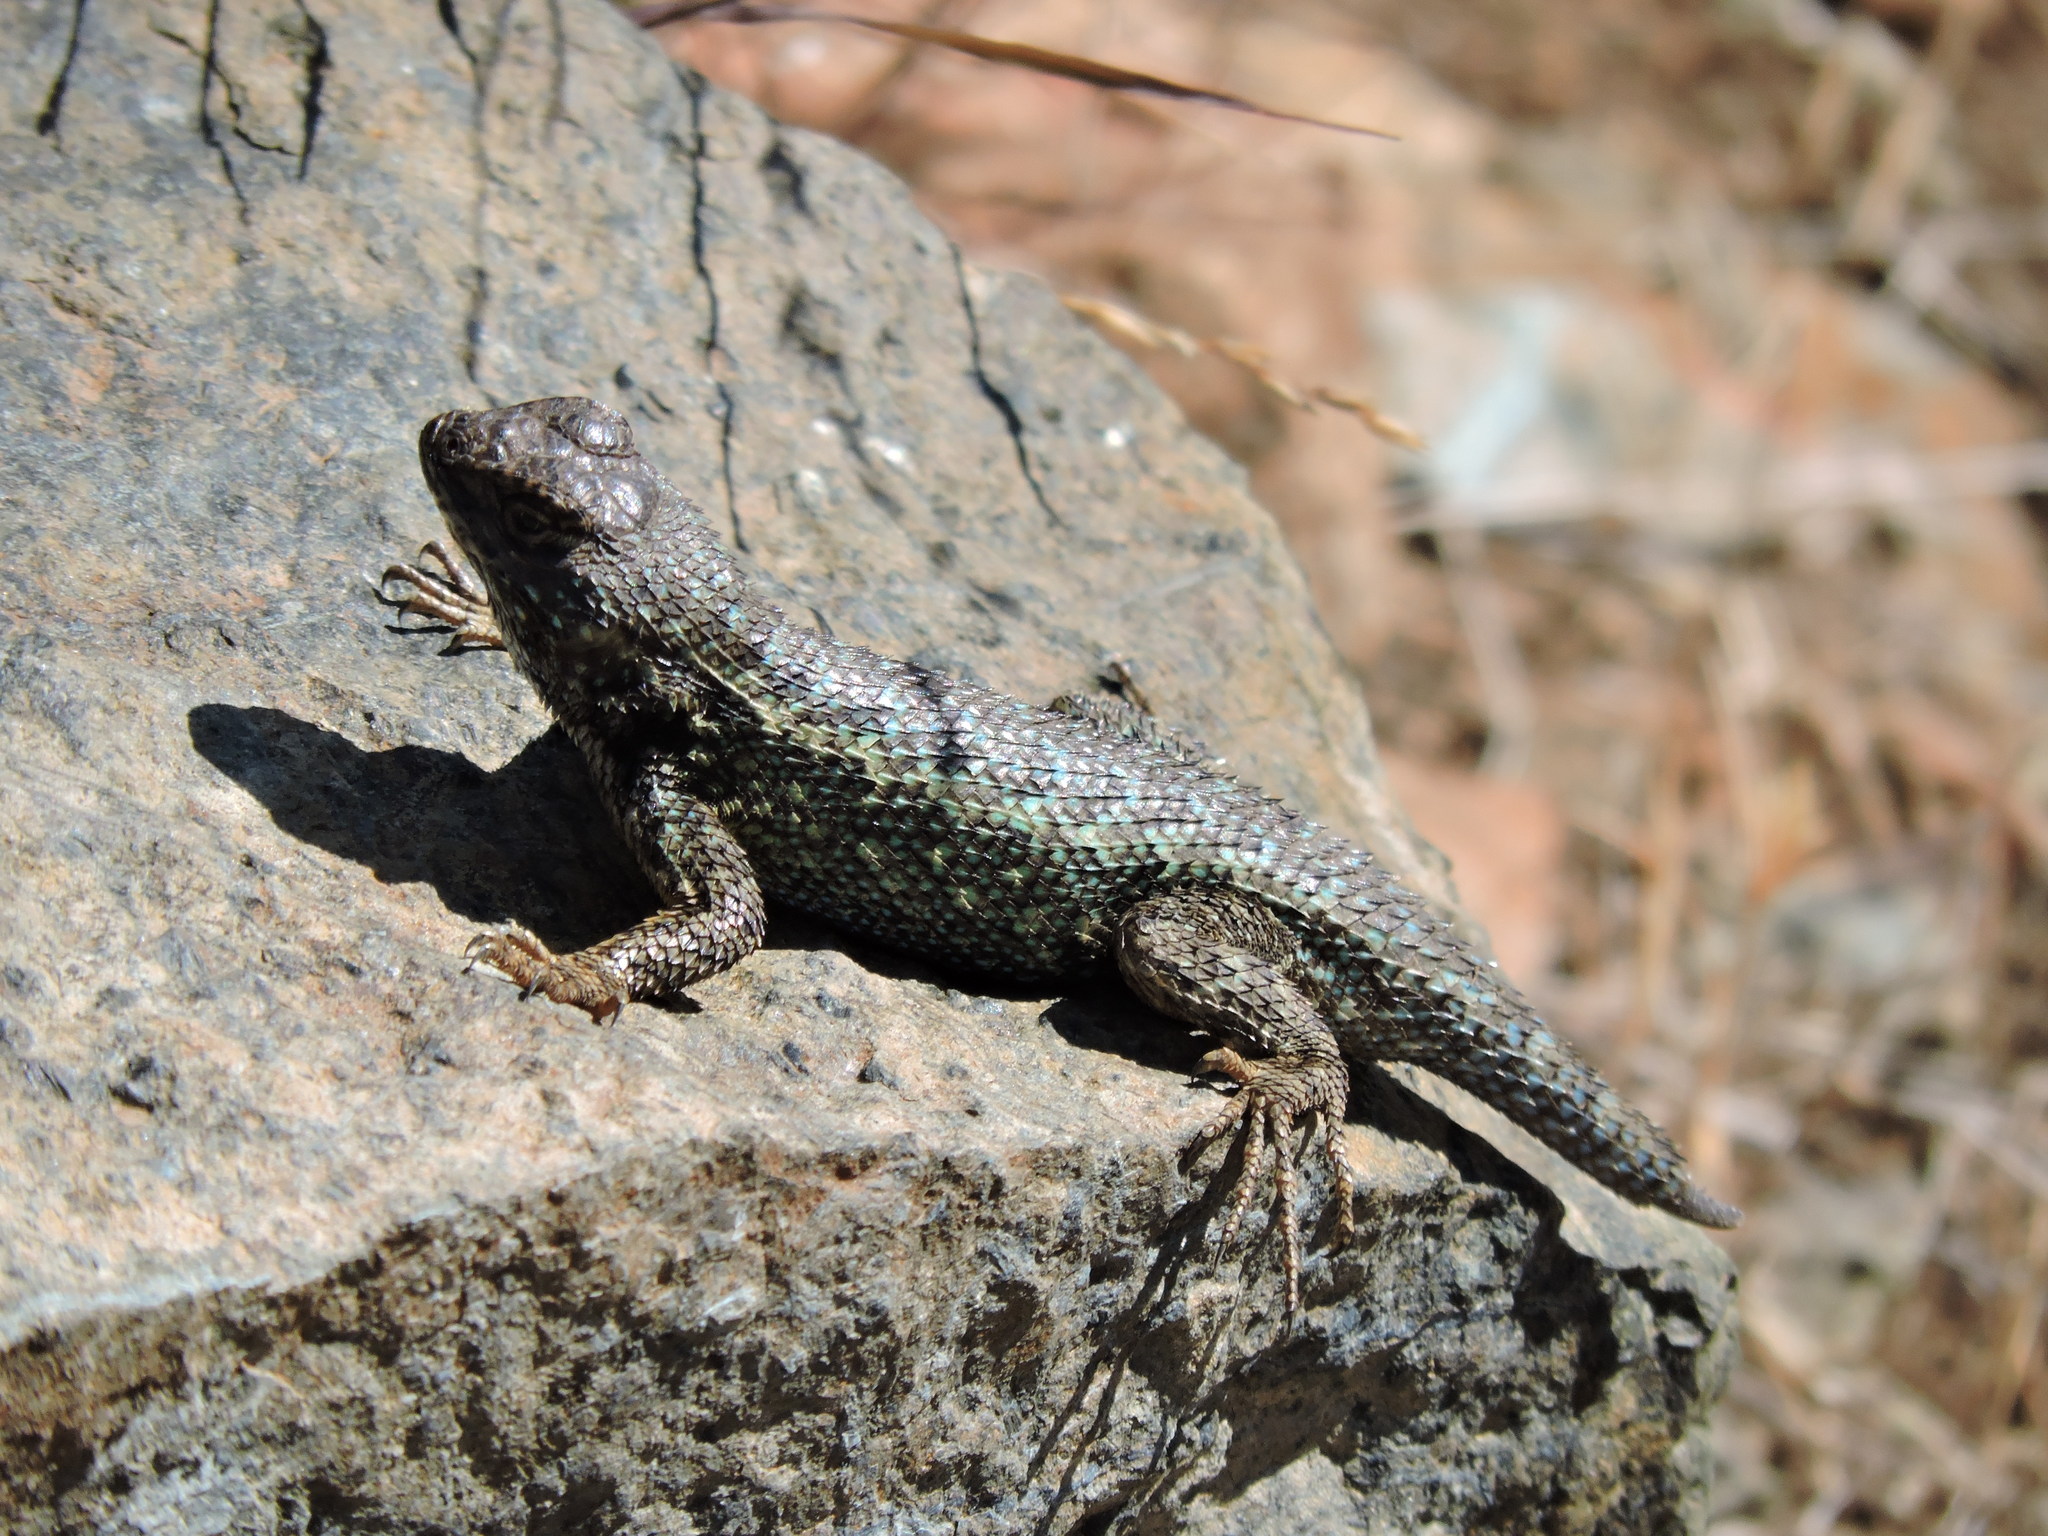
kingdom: Animalia
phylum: Chordata
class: Squamata
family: Phrynosomatidae
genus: Sceloporus
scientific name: Sceloporus occidentalis
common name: Western fence lizard
